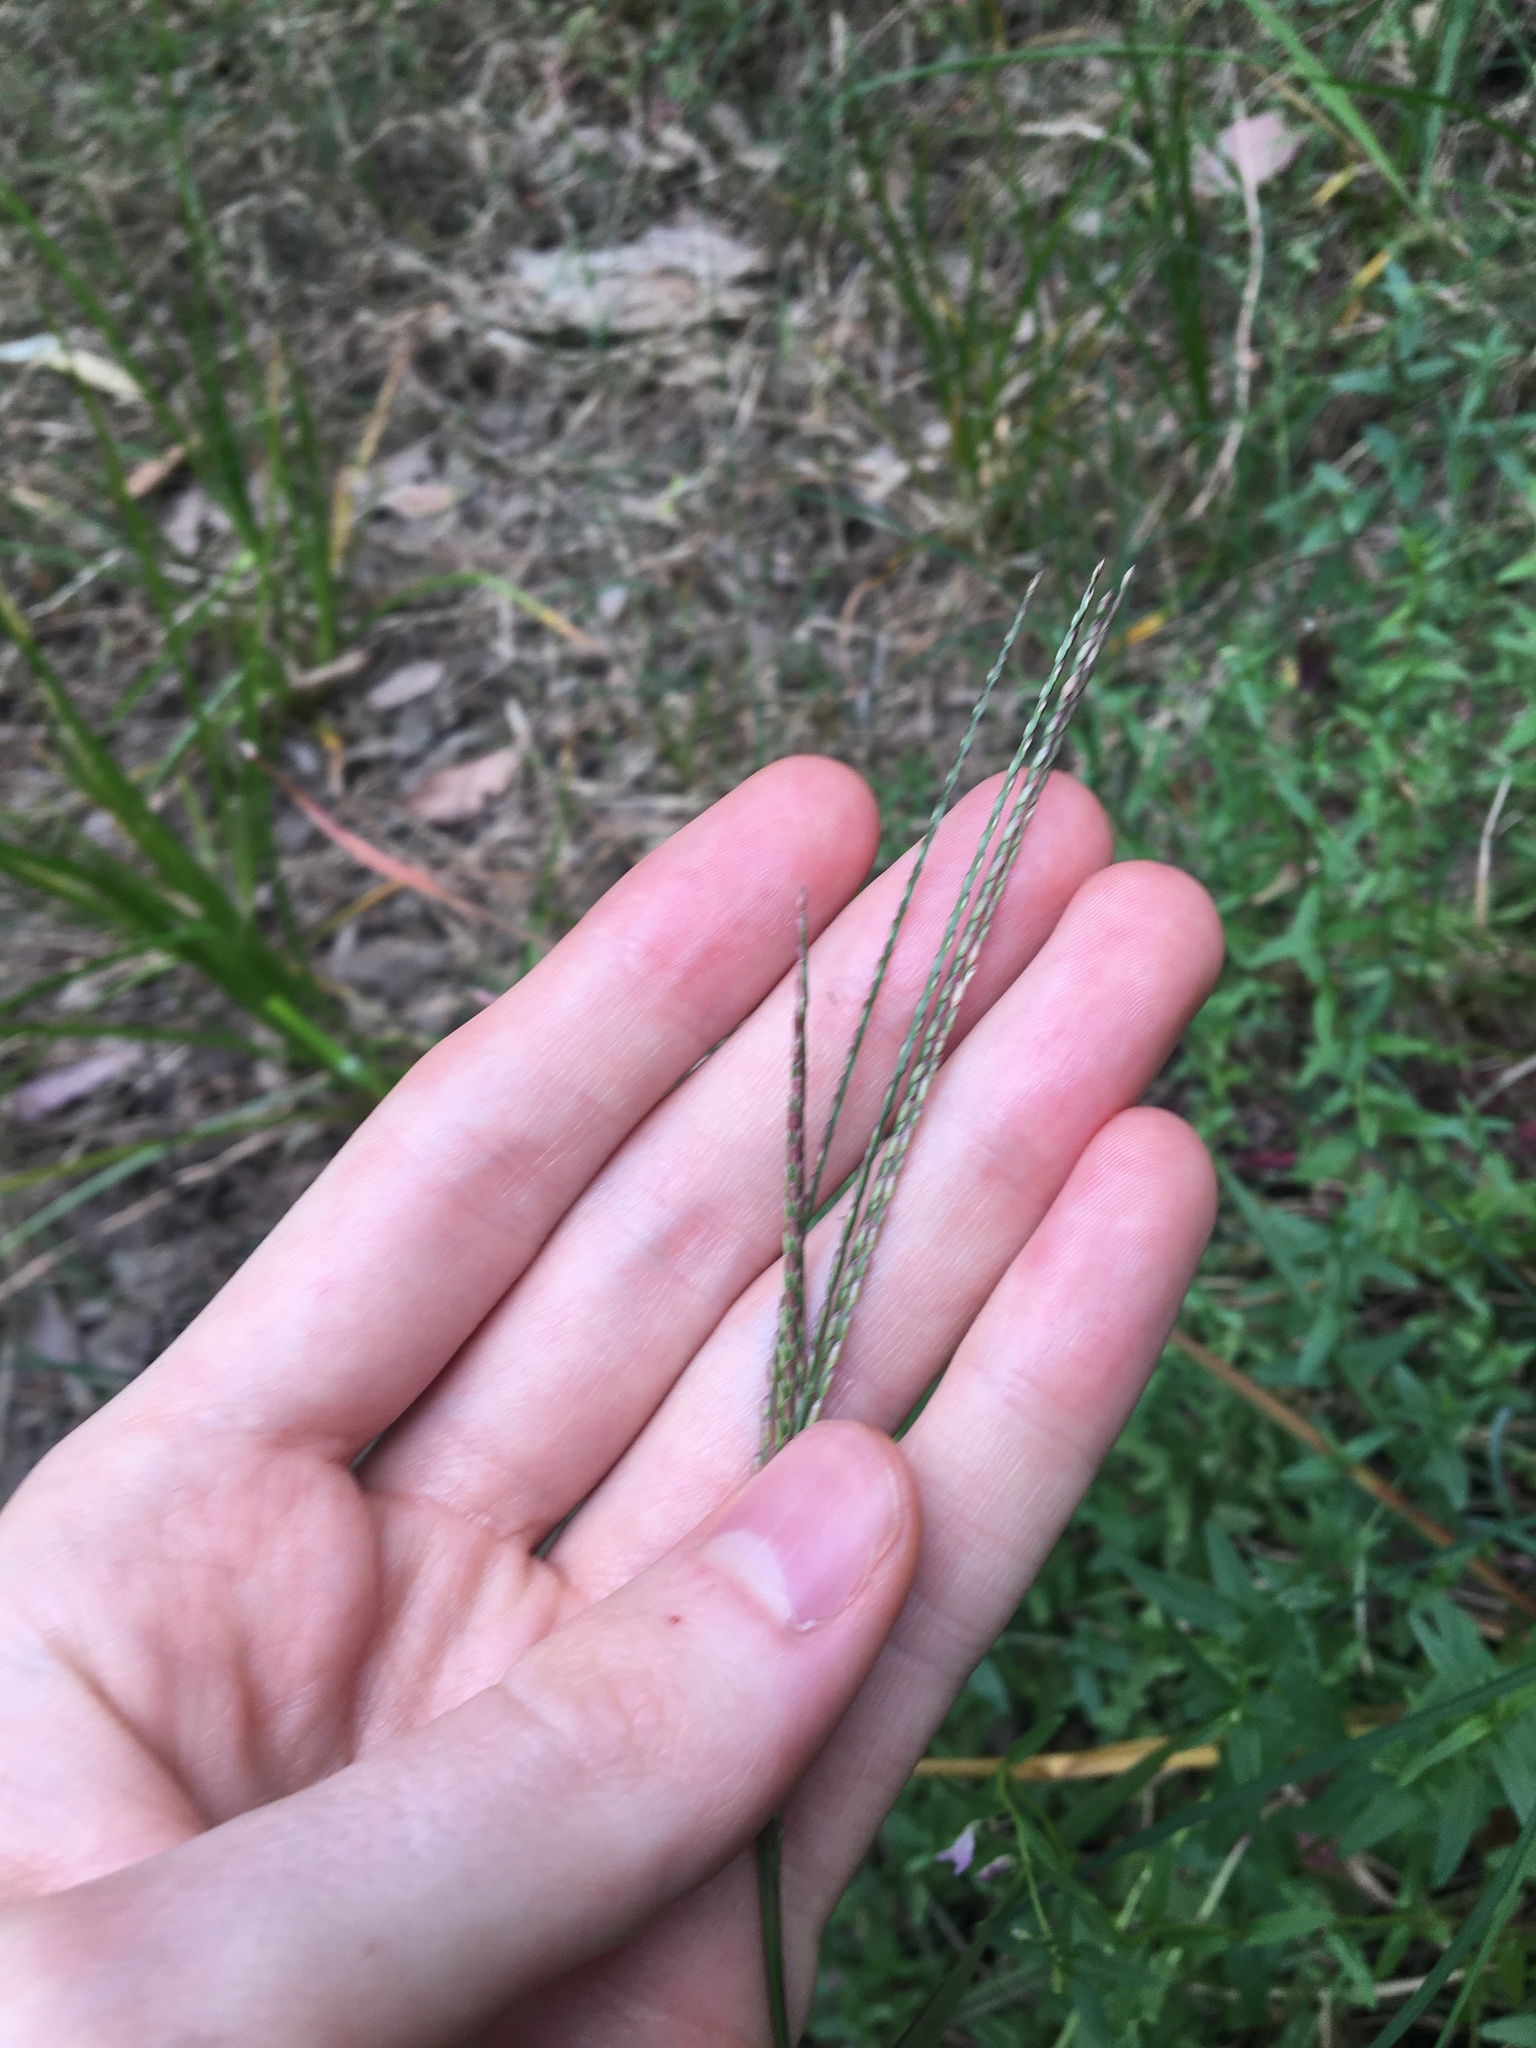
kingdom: Plantae
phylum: Tracheophyta
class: Liliopsida
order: Poales
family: Poaceae
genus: Digitaria
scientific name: Digitaria sanguinalis
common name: Hairy crabgrass
